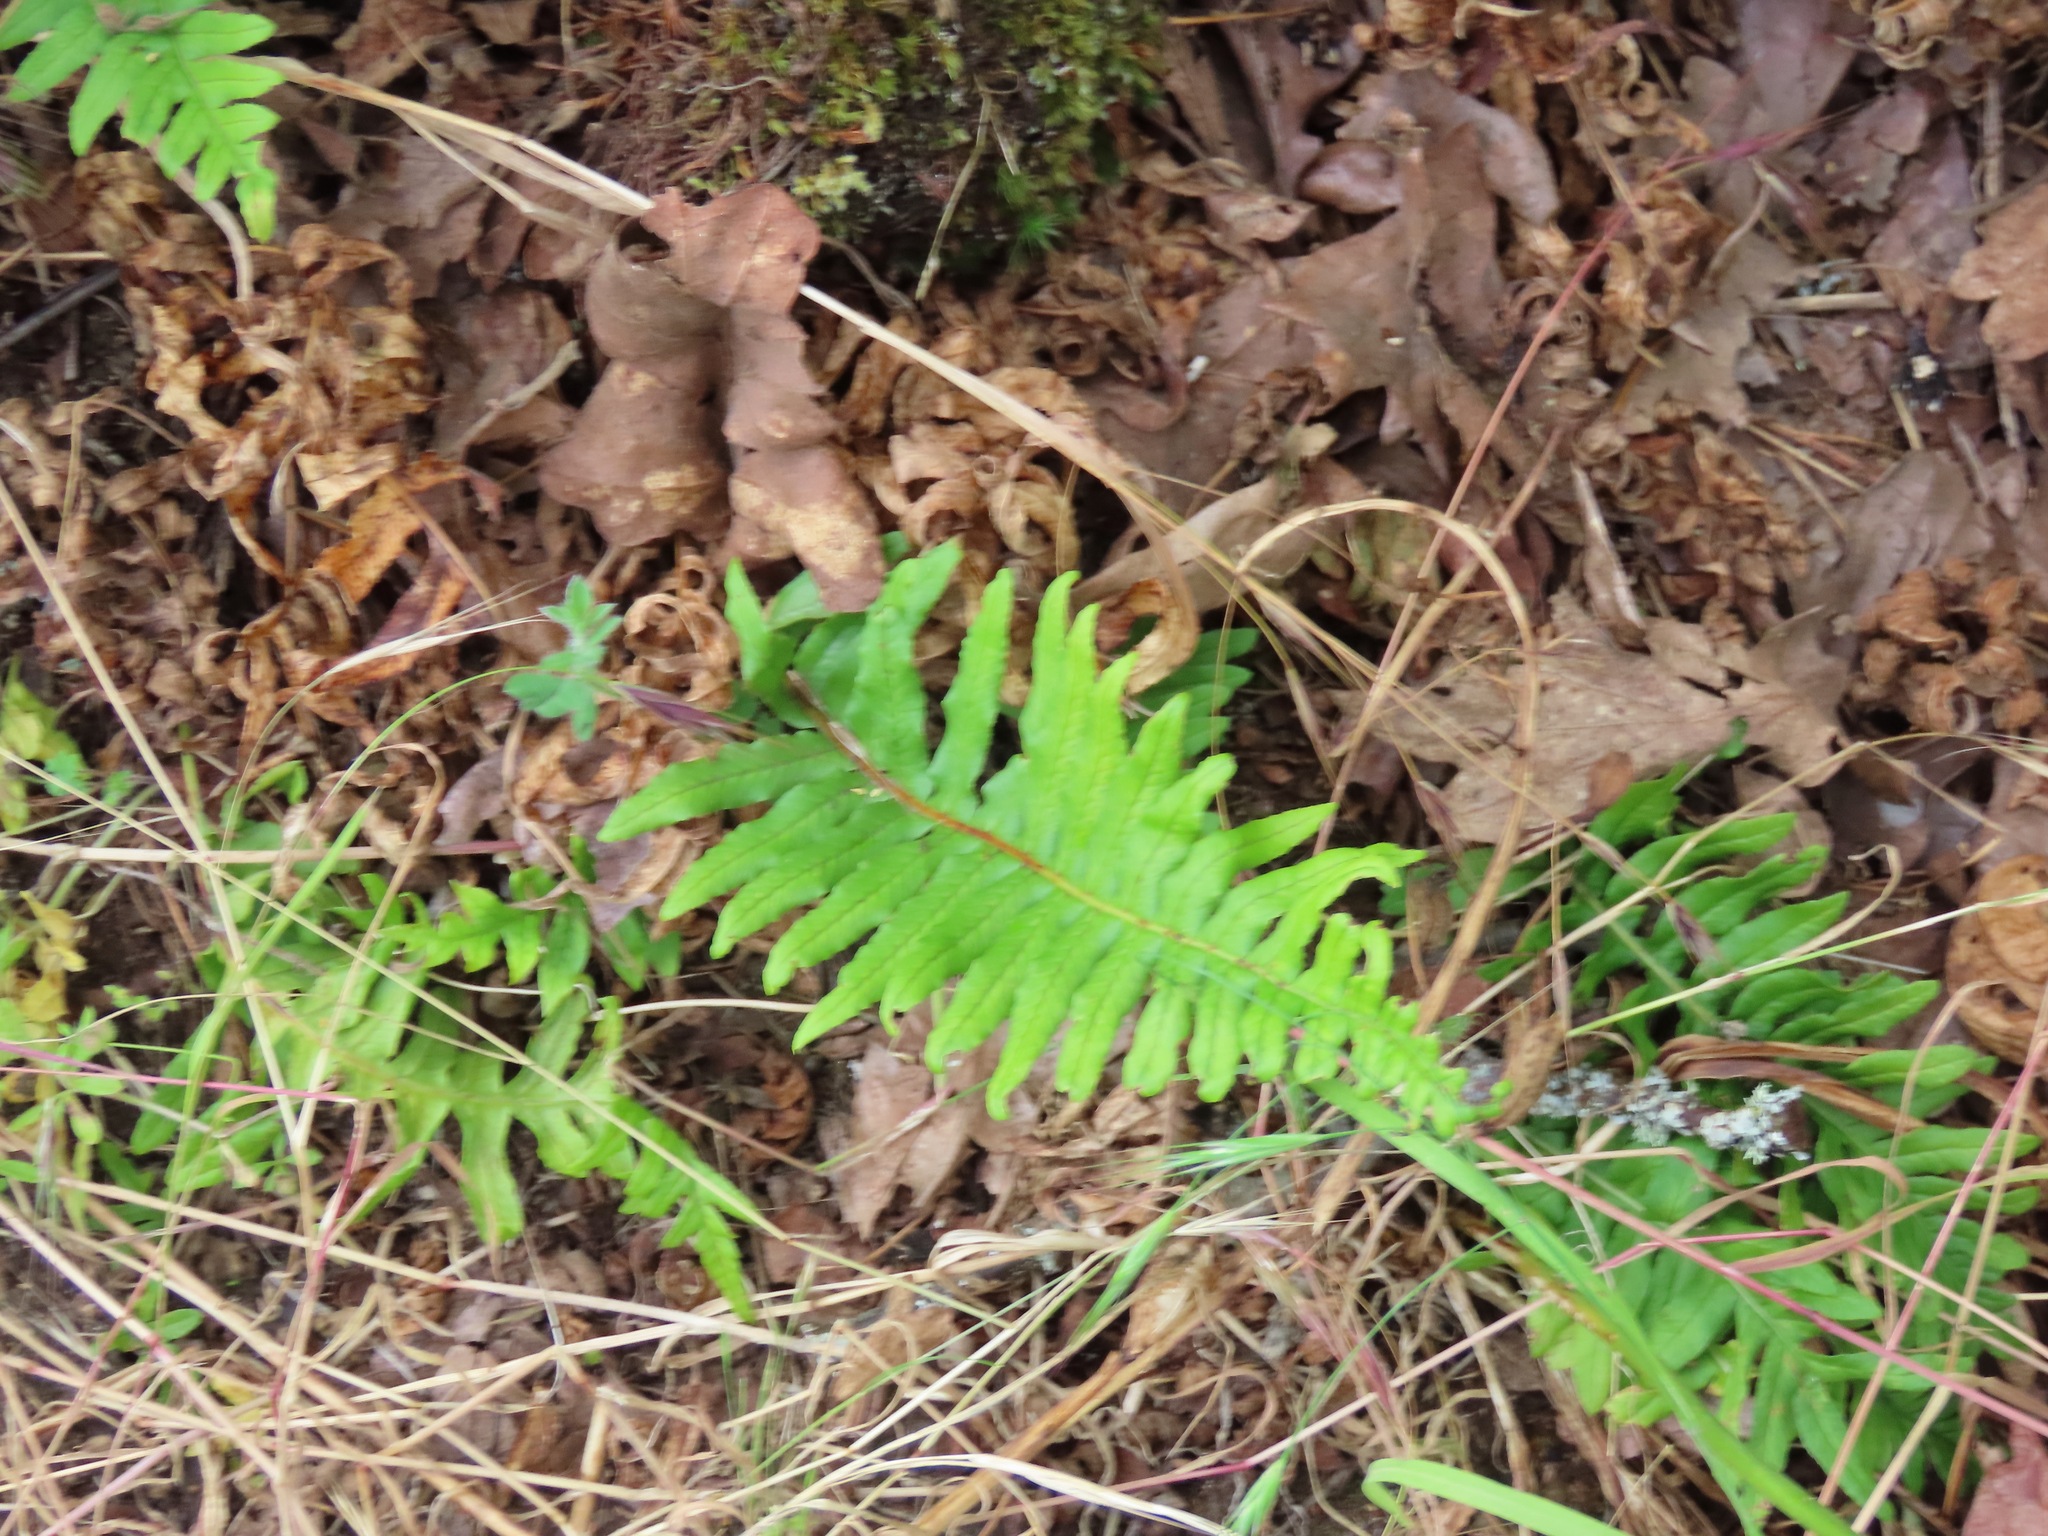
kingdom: Plantae
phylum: Tracheophyta
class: Polypodiopsida
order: Polypodiales
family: Polypodiaceae
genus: Polypodium
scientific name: Polypodium glycyrrhiza
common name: Licorice fern
